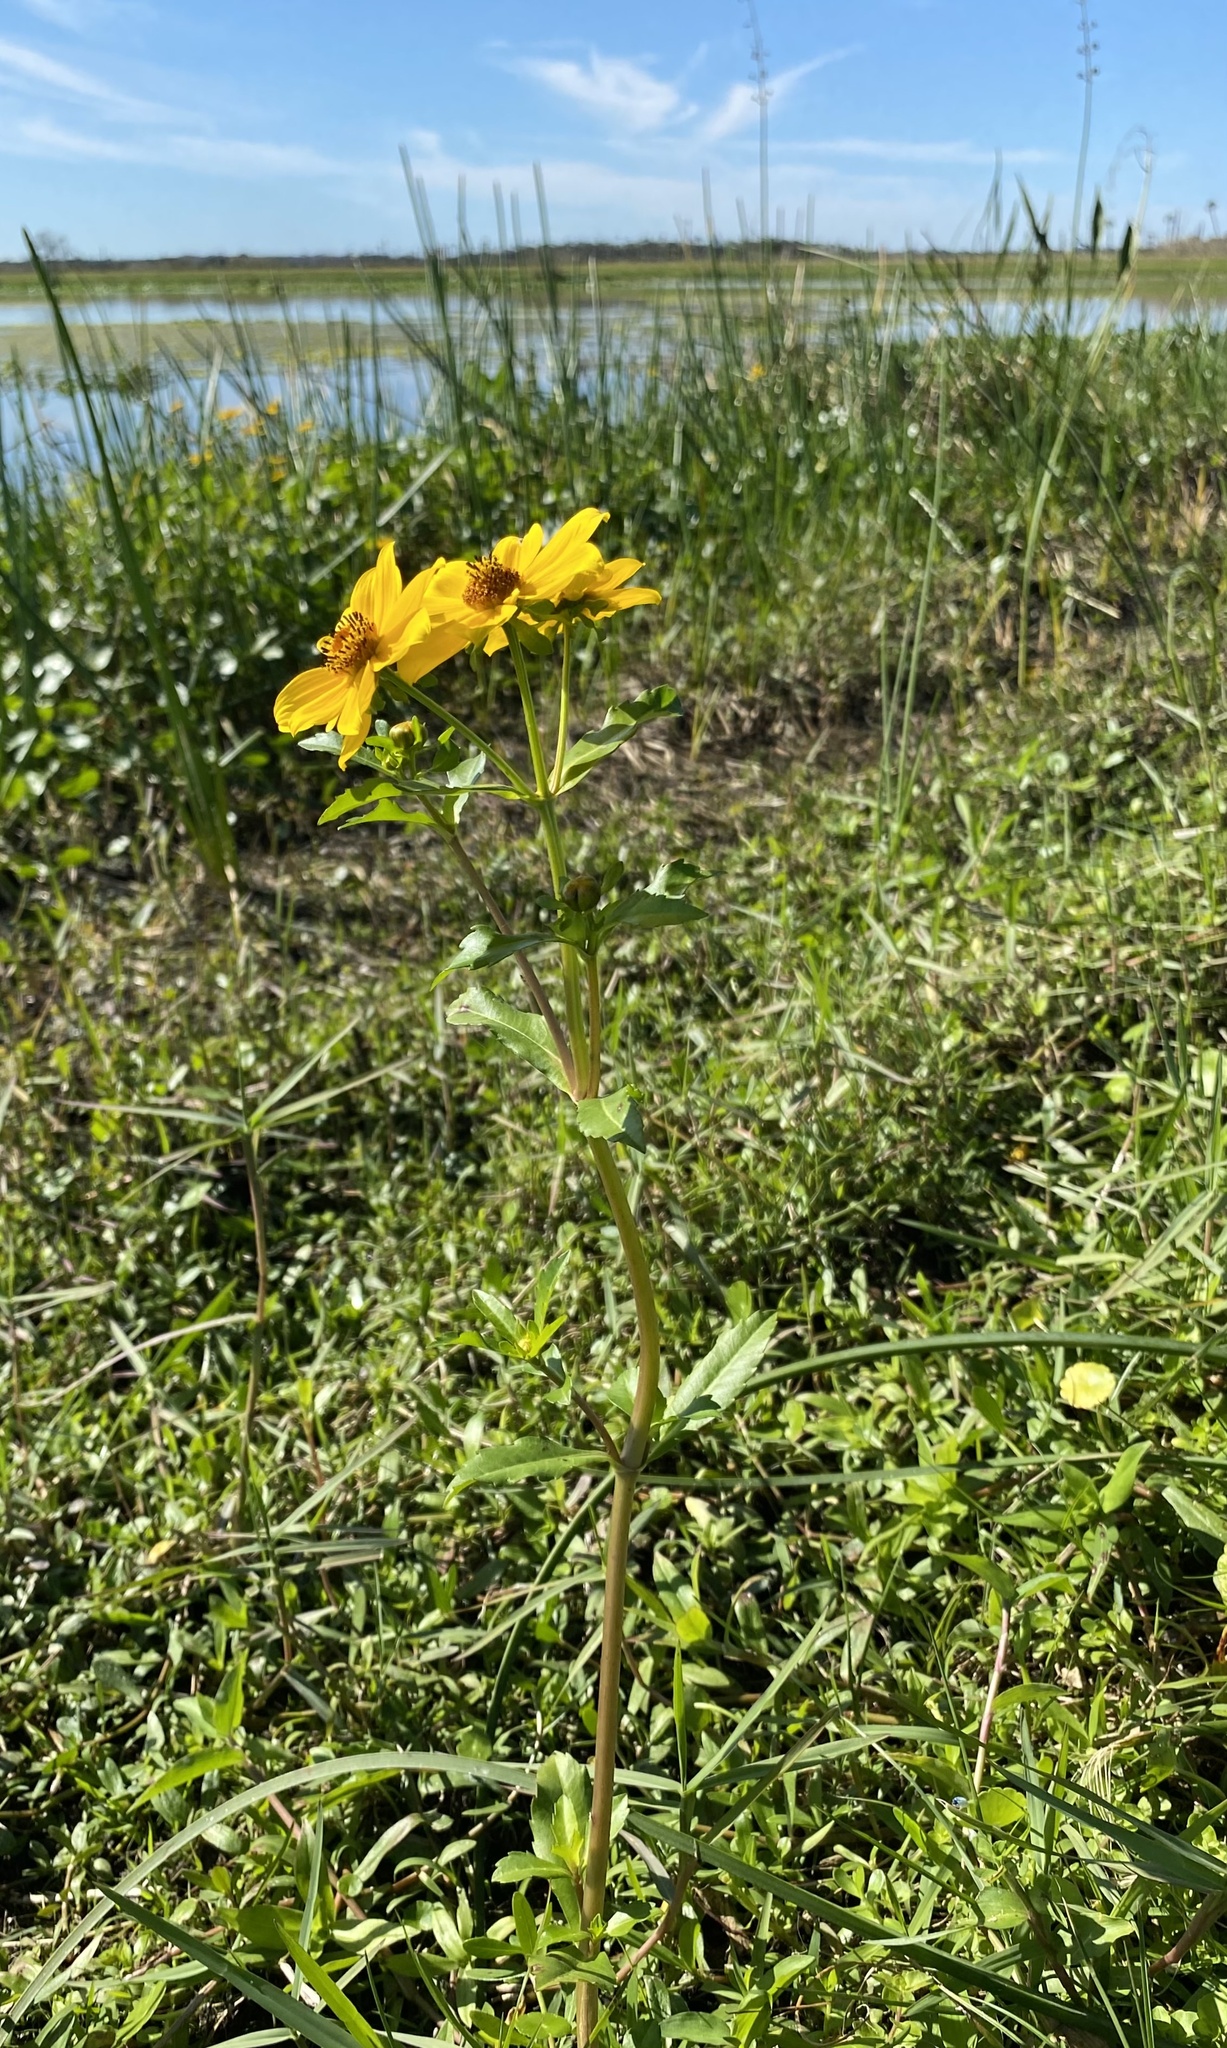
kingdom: Plantae
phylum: Tracheophyta
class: Magnoliopsida
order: Asterales
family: Asteraceae
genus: Bidens
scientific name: Bidens laevis
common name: Larger bur-marigold
